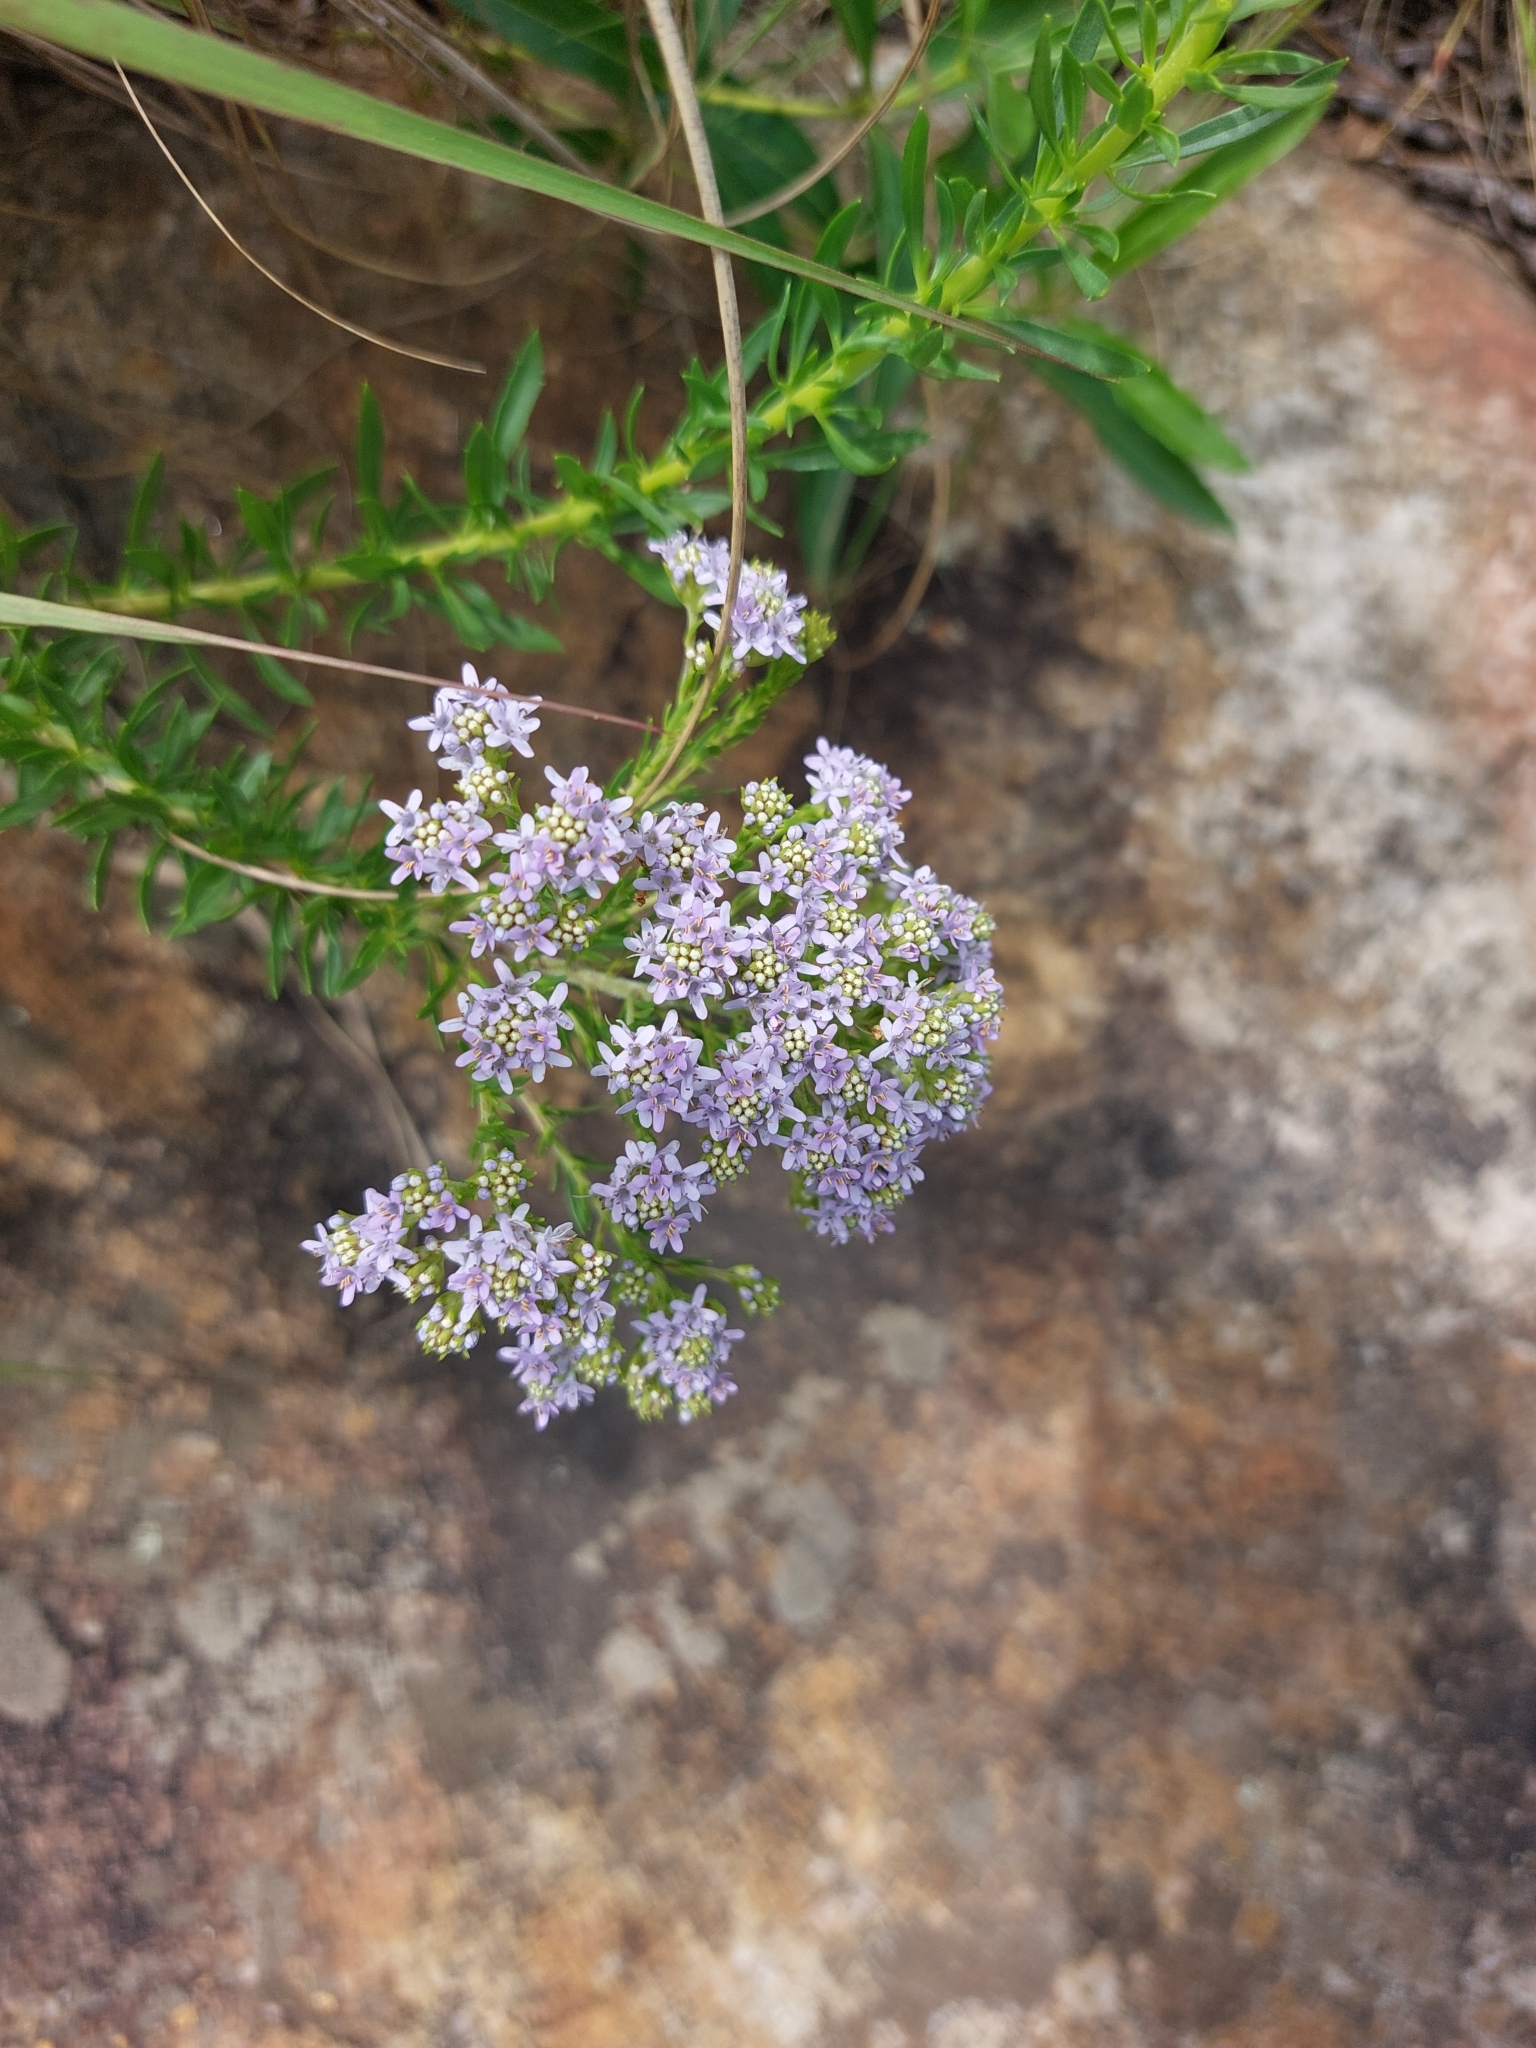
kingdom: Plantae
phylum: Tracheophyta
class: Magnoliopsida
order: Lamiales
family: Scrophulariaceae
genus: Tetraselago
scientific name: Tetraselago wilmsii
